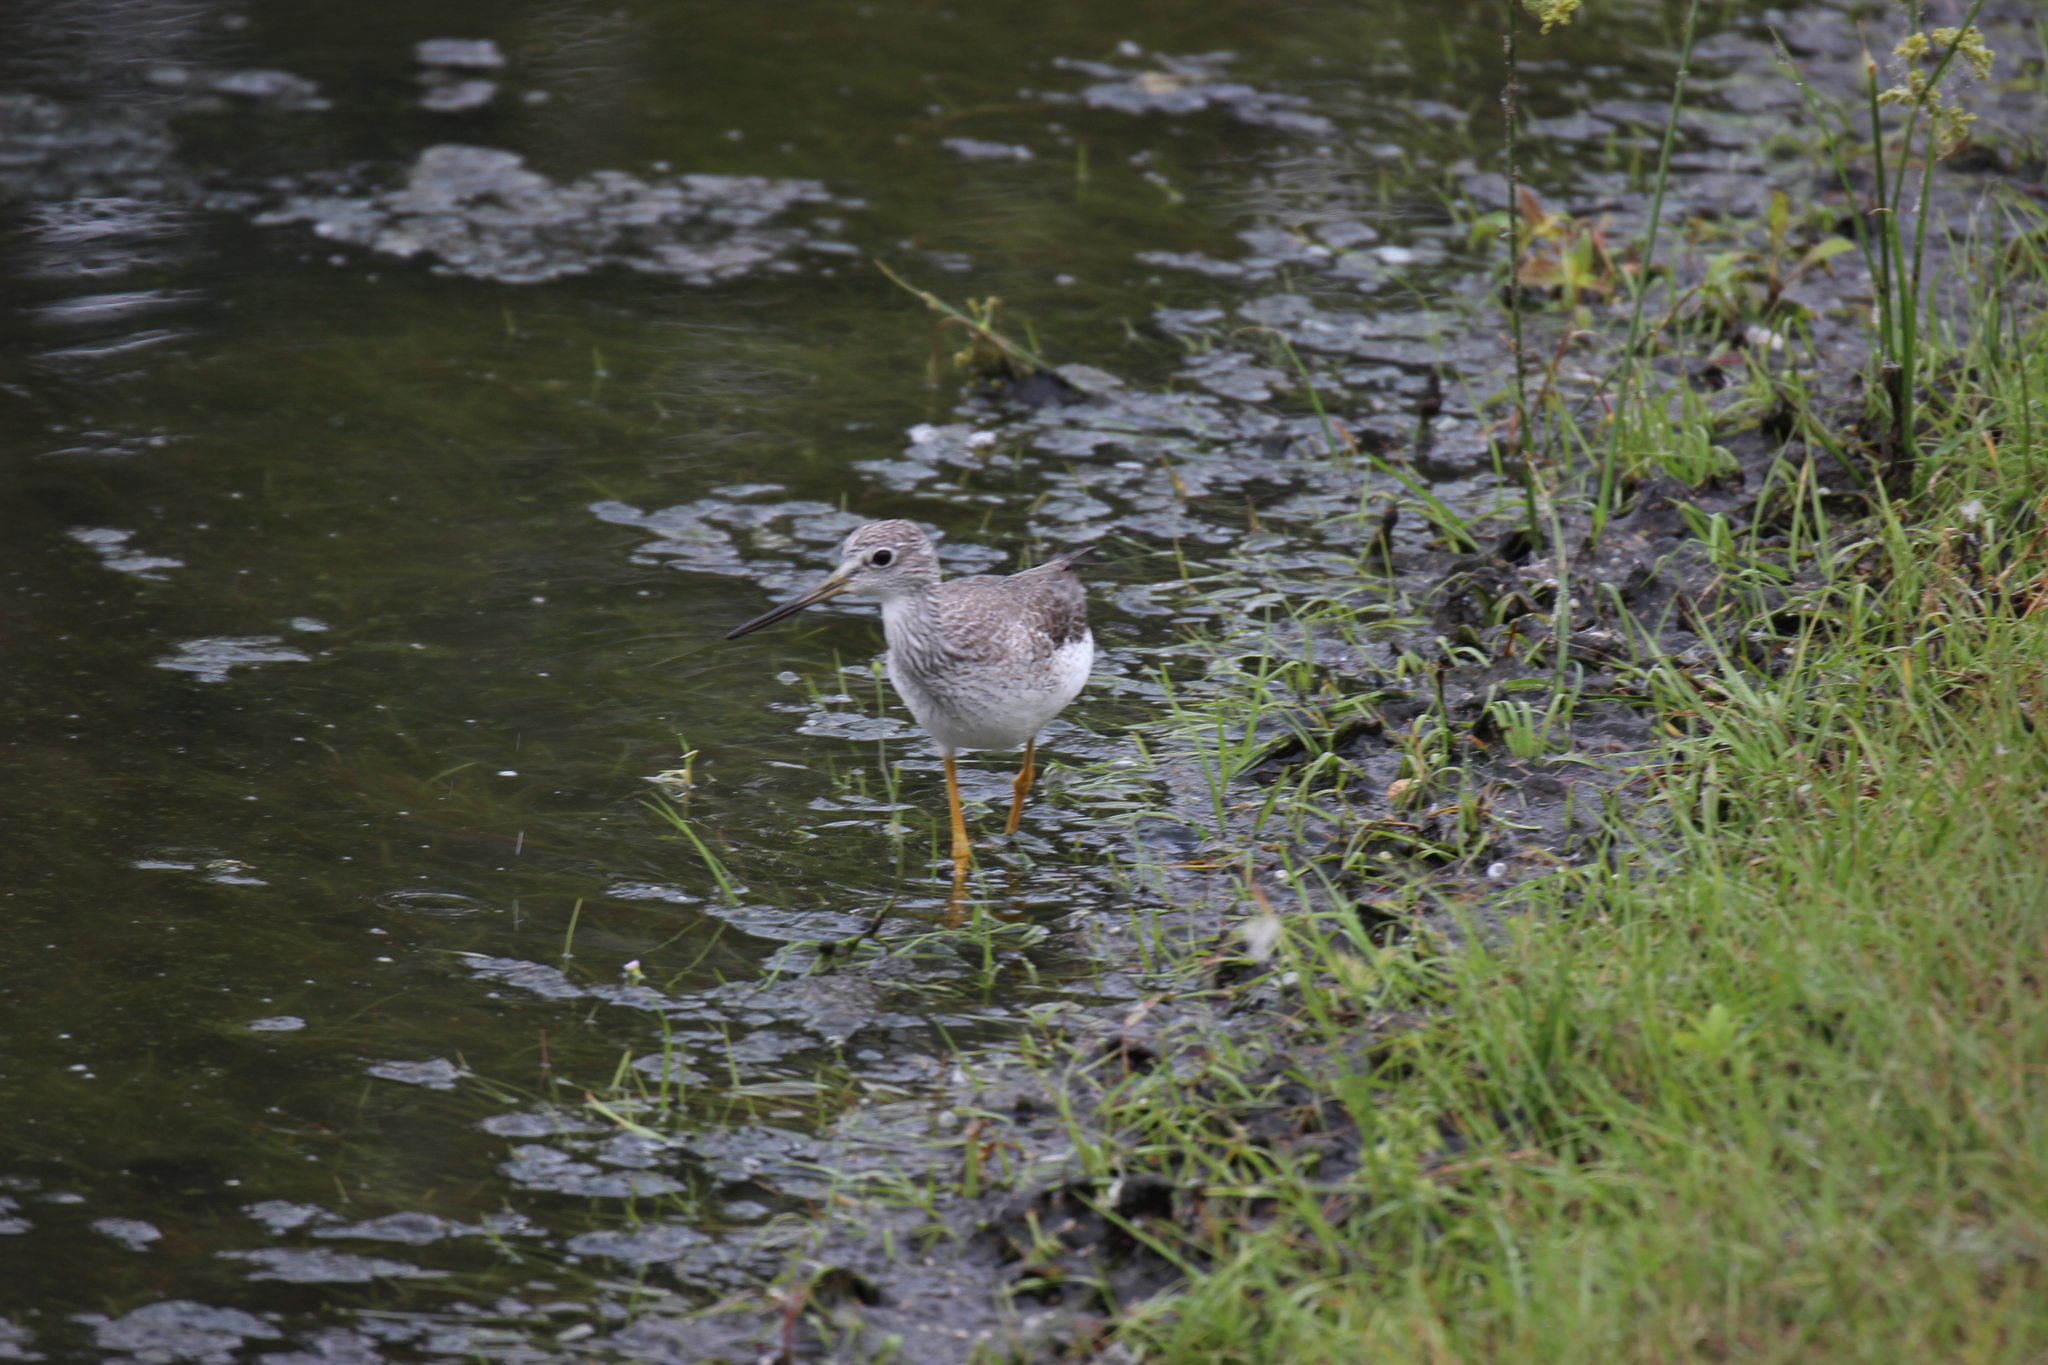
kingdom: Animalia
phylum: Chordata
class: Aves
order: Charadriiformes
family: Scolopacidae
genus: Tringa
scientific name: Tringa melanoleuca
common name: Greater yellowlegs
